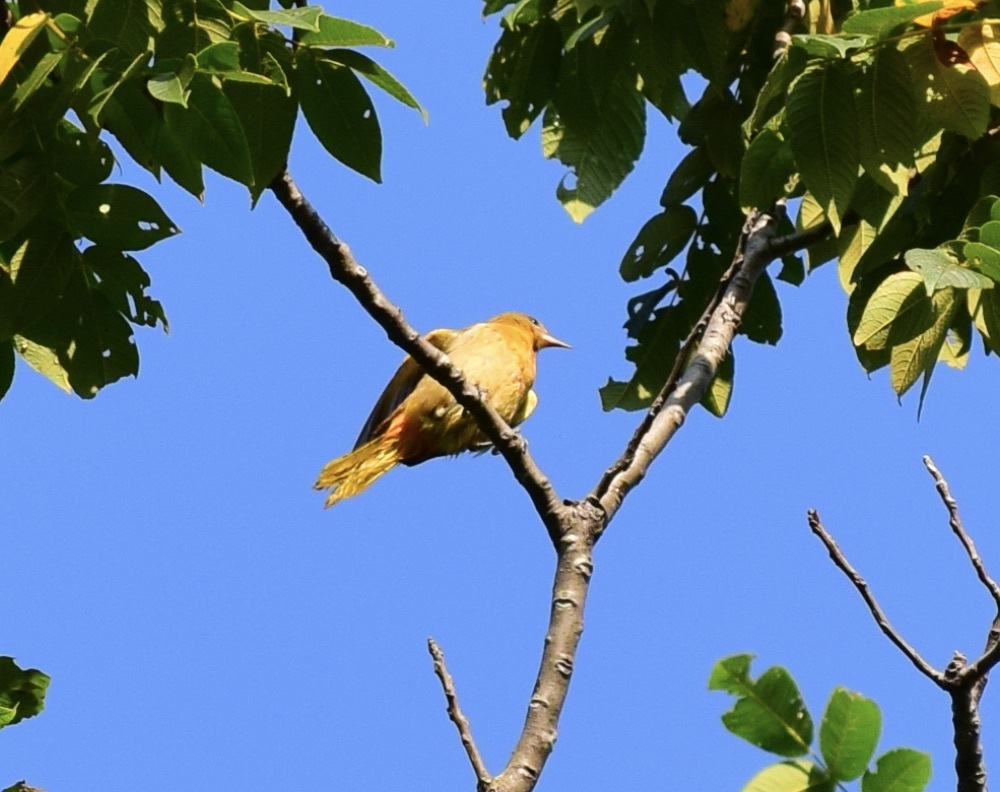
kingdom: Animalia
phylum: Chordata
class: Aves
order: Passeriformes
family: Icteridae
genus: Icterus
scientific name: Icterus galbula
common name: Baltimore oriole
